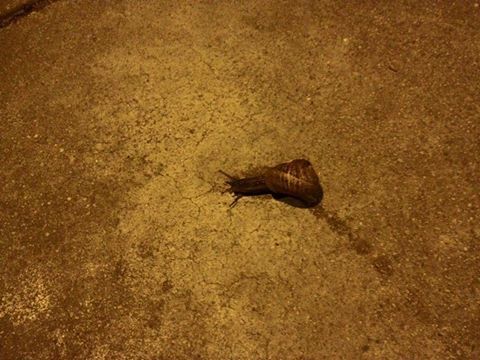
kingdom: Animalia
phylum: Mollusca
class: Gastropoda
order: Stylommatophora
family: Helicidae
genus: Cornu
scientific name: Cornu aspersum
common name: Brown garden snail
